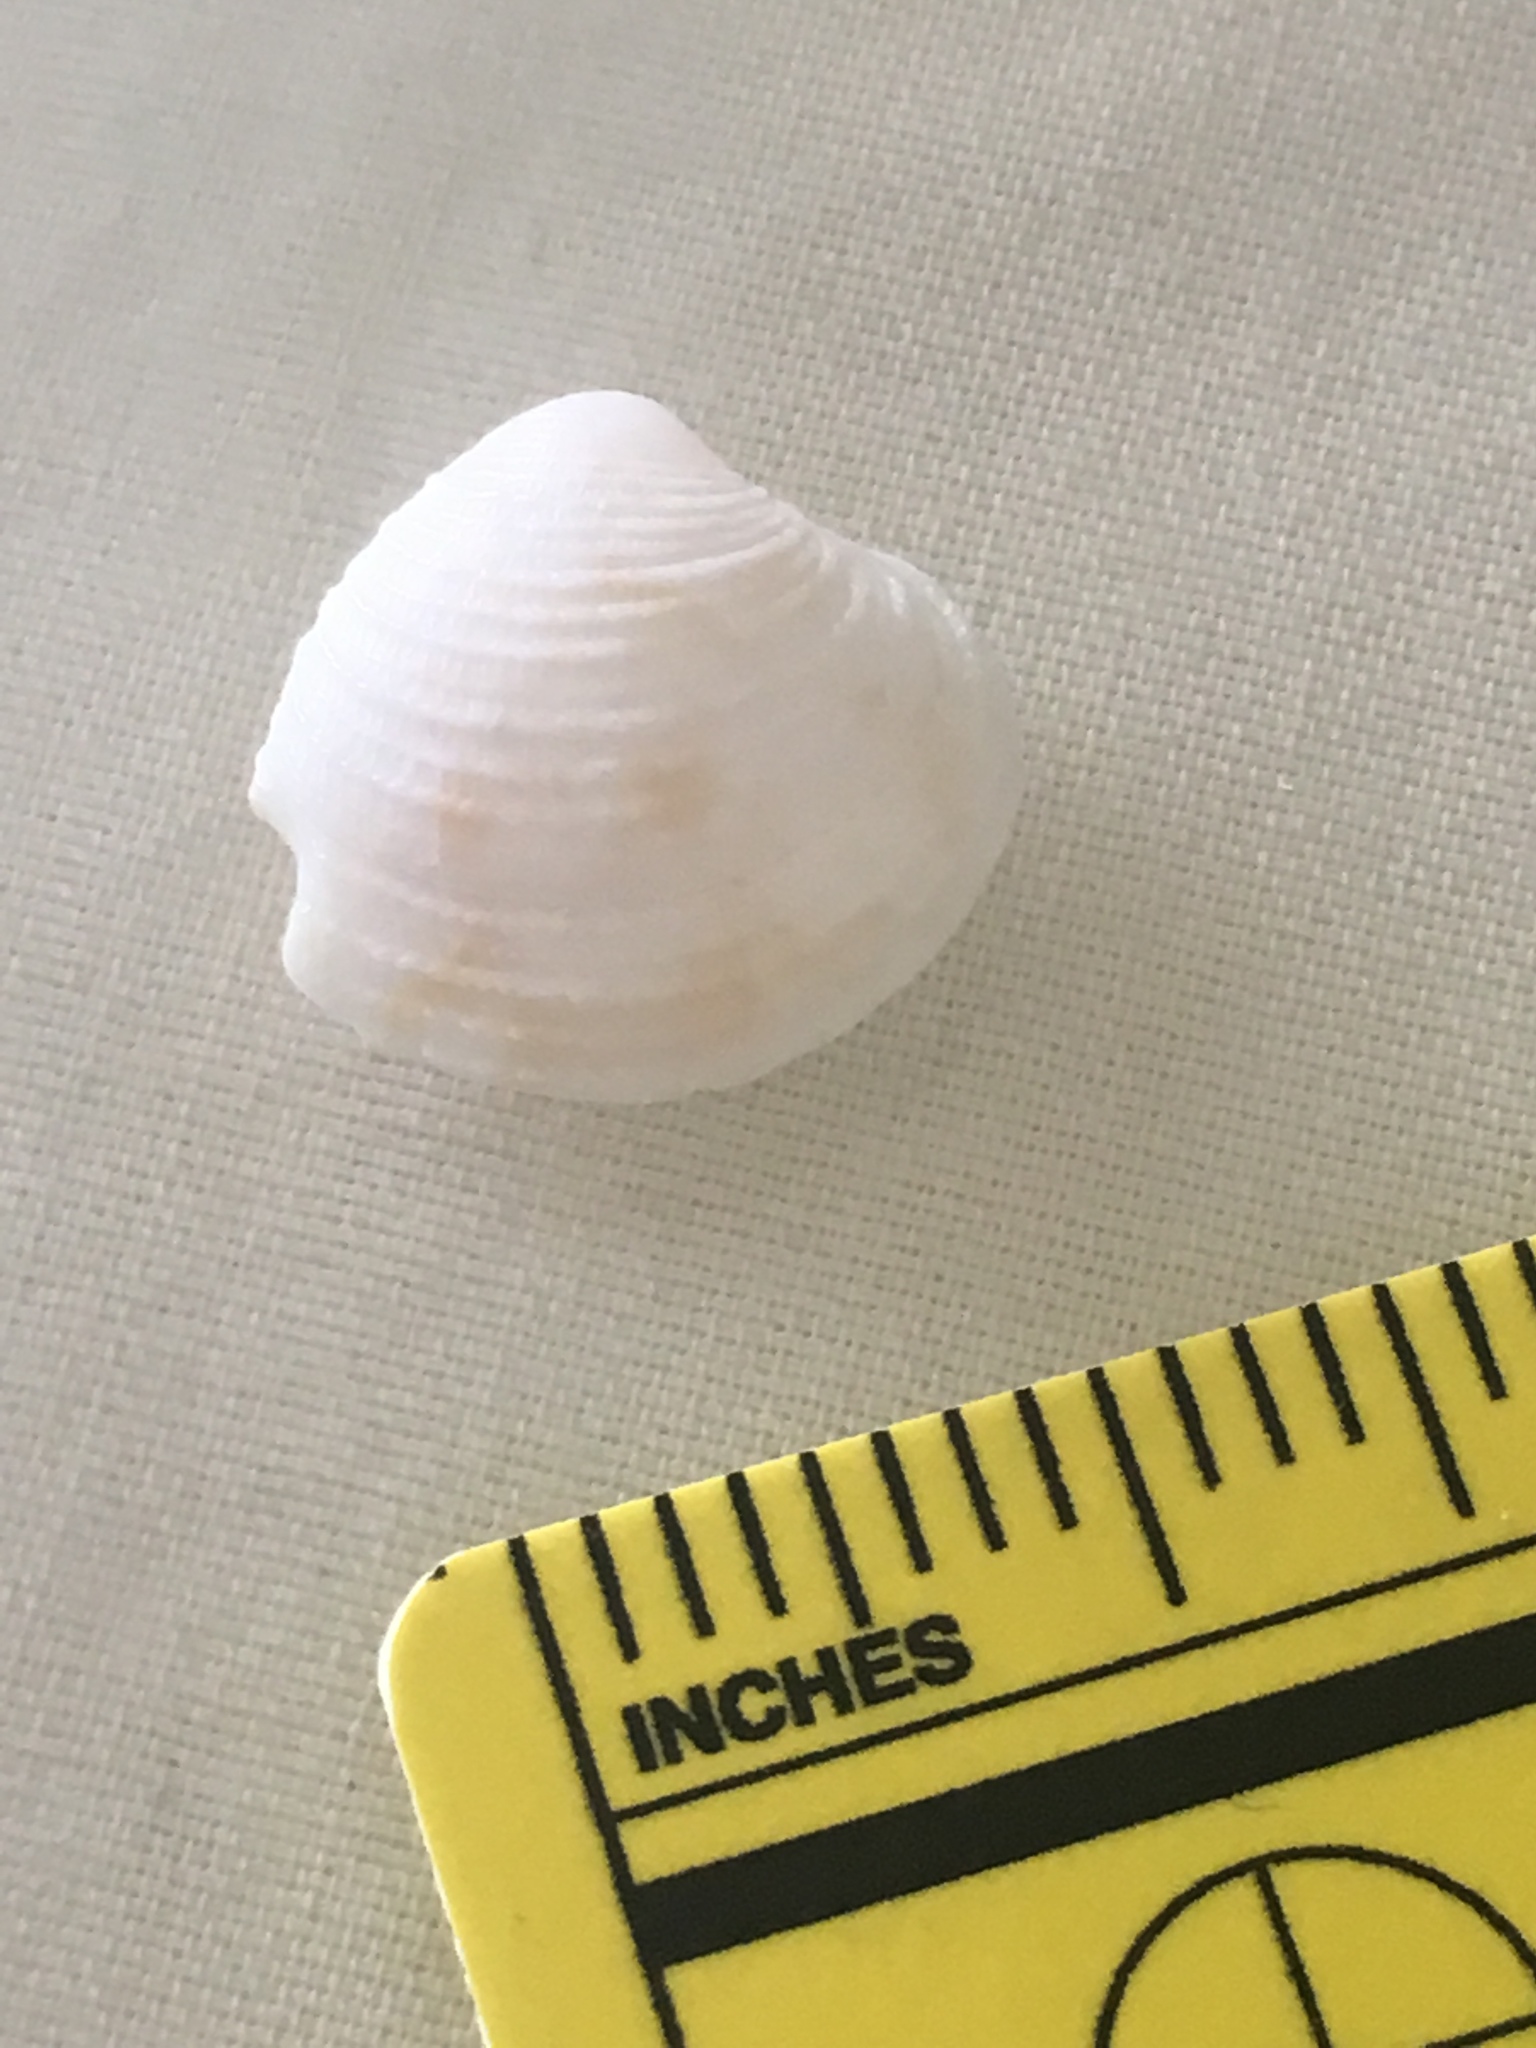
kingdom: Animalia
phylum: Mollusca
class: Bivalvia
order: Venerida
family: Veneridae
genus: Chionopsis
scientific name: Chionopsis intapurpurea
